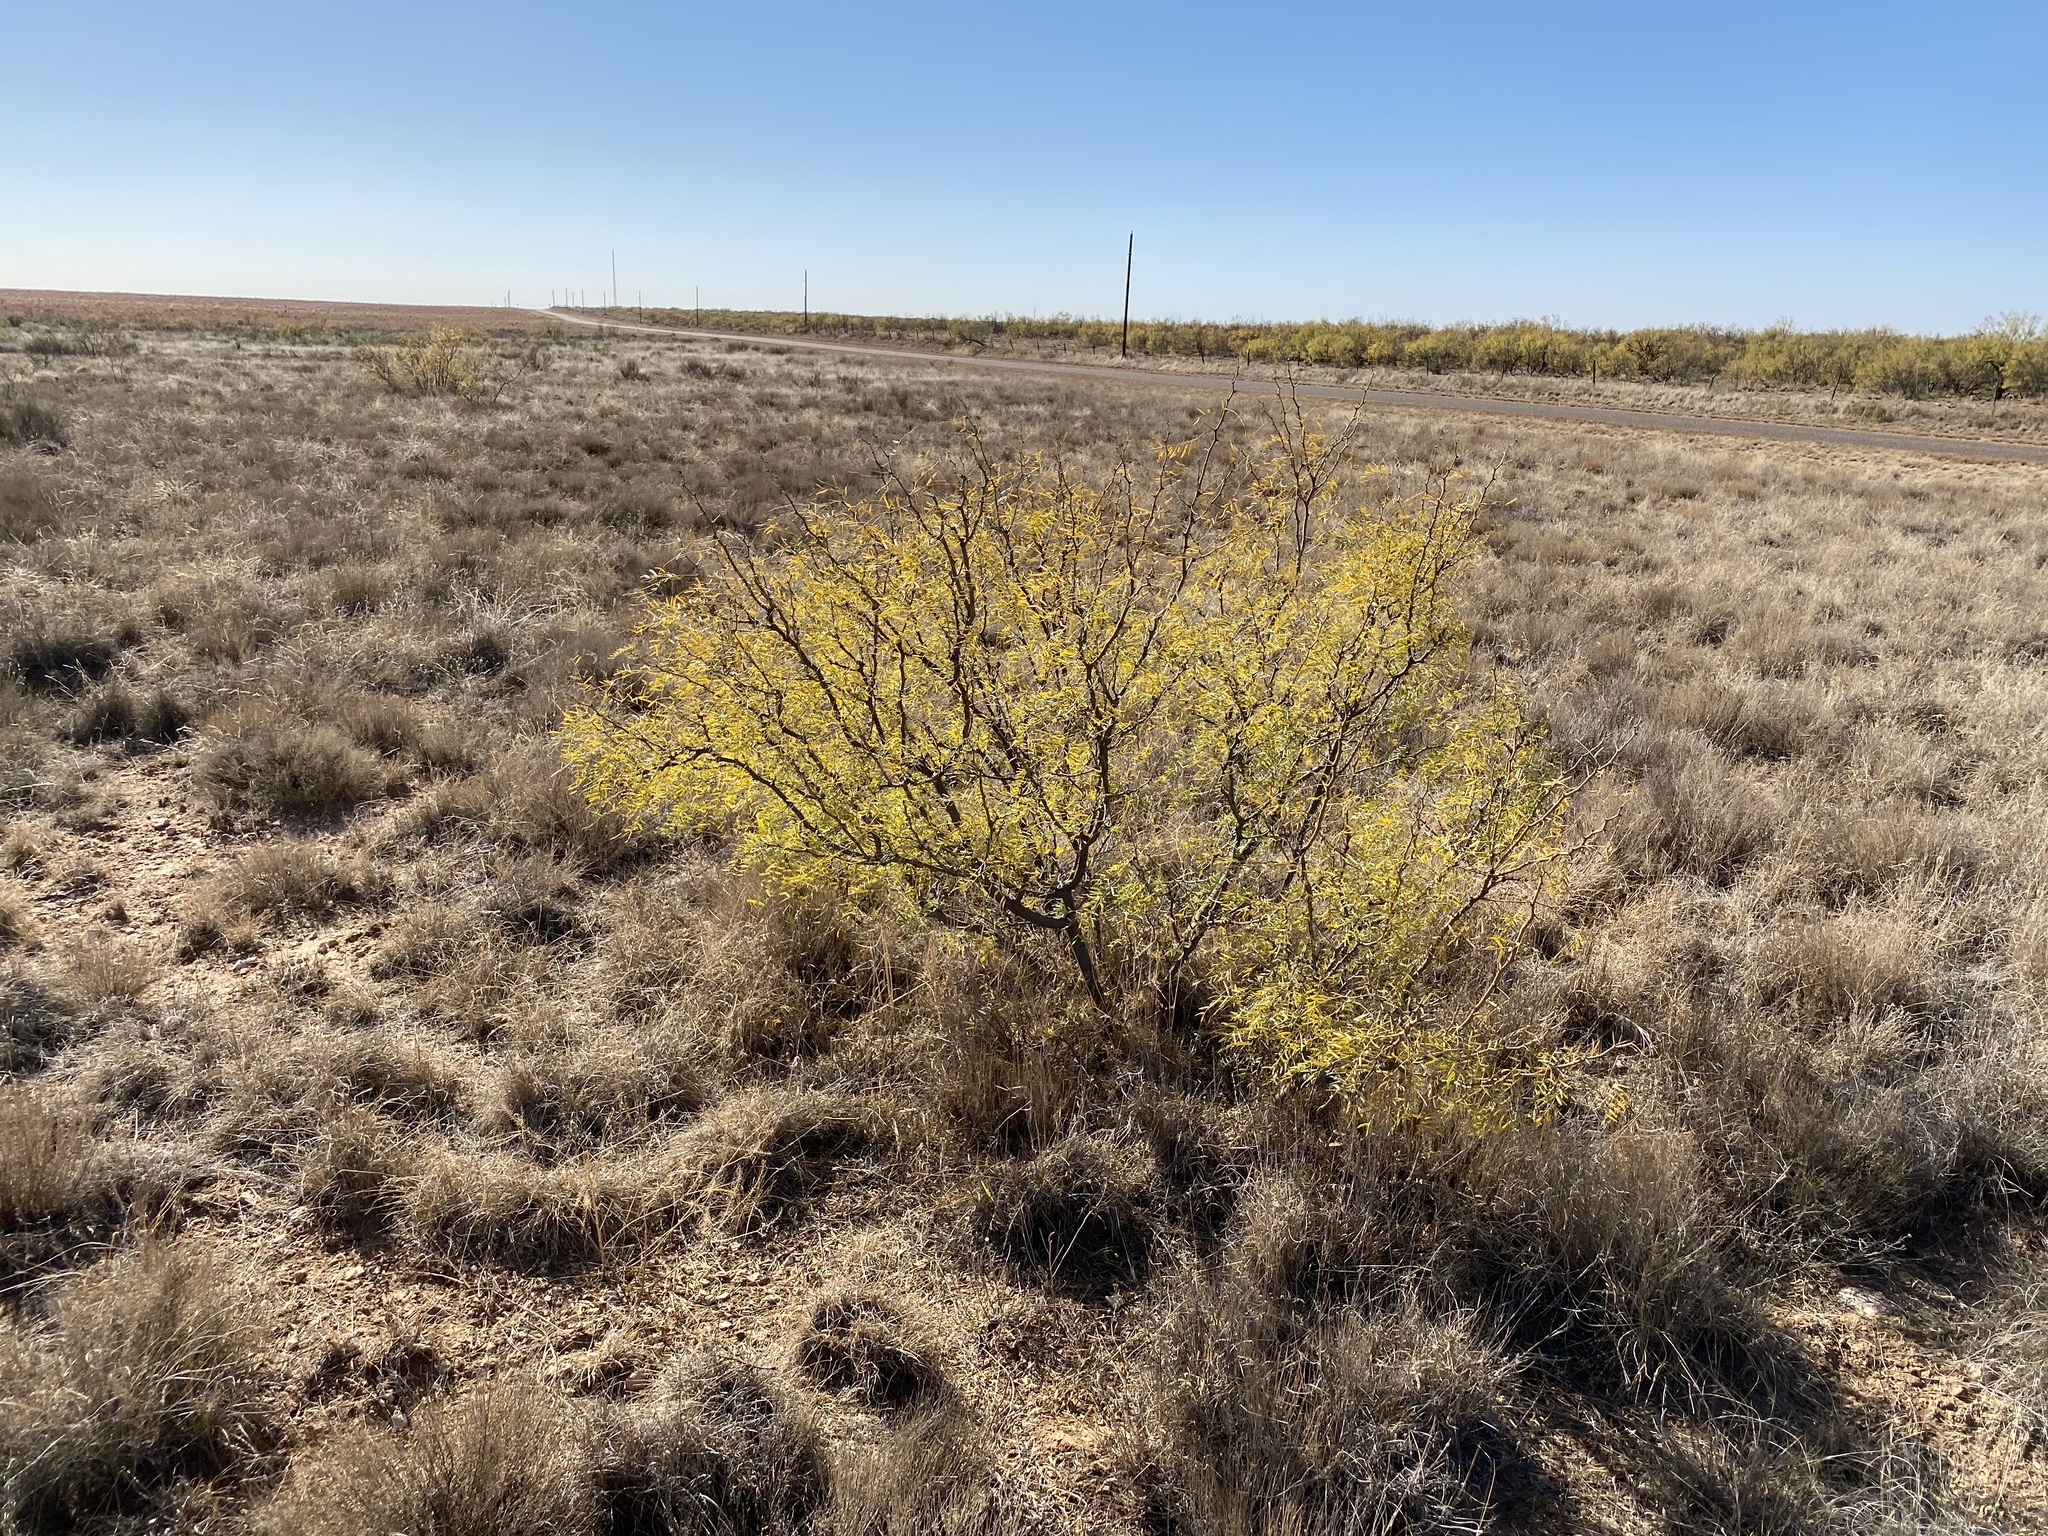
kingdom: Plantae
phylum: Tracheophyta
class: Magnoliopsida
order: Fabales
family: Fabaceae
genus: Prosopis
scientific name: Prosopis glandulosa
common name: Honey mesquite
